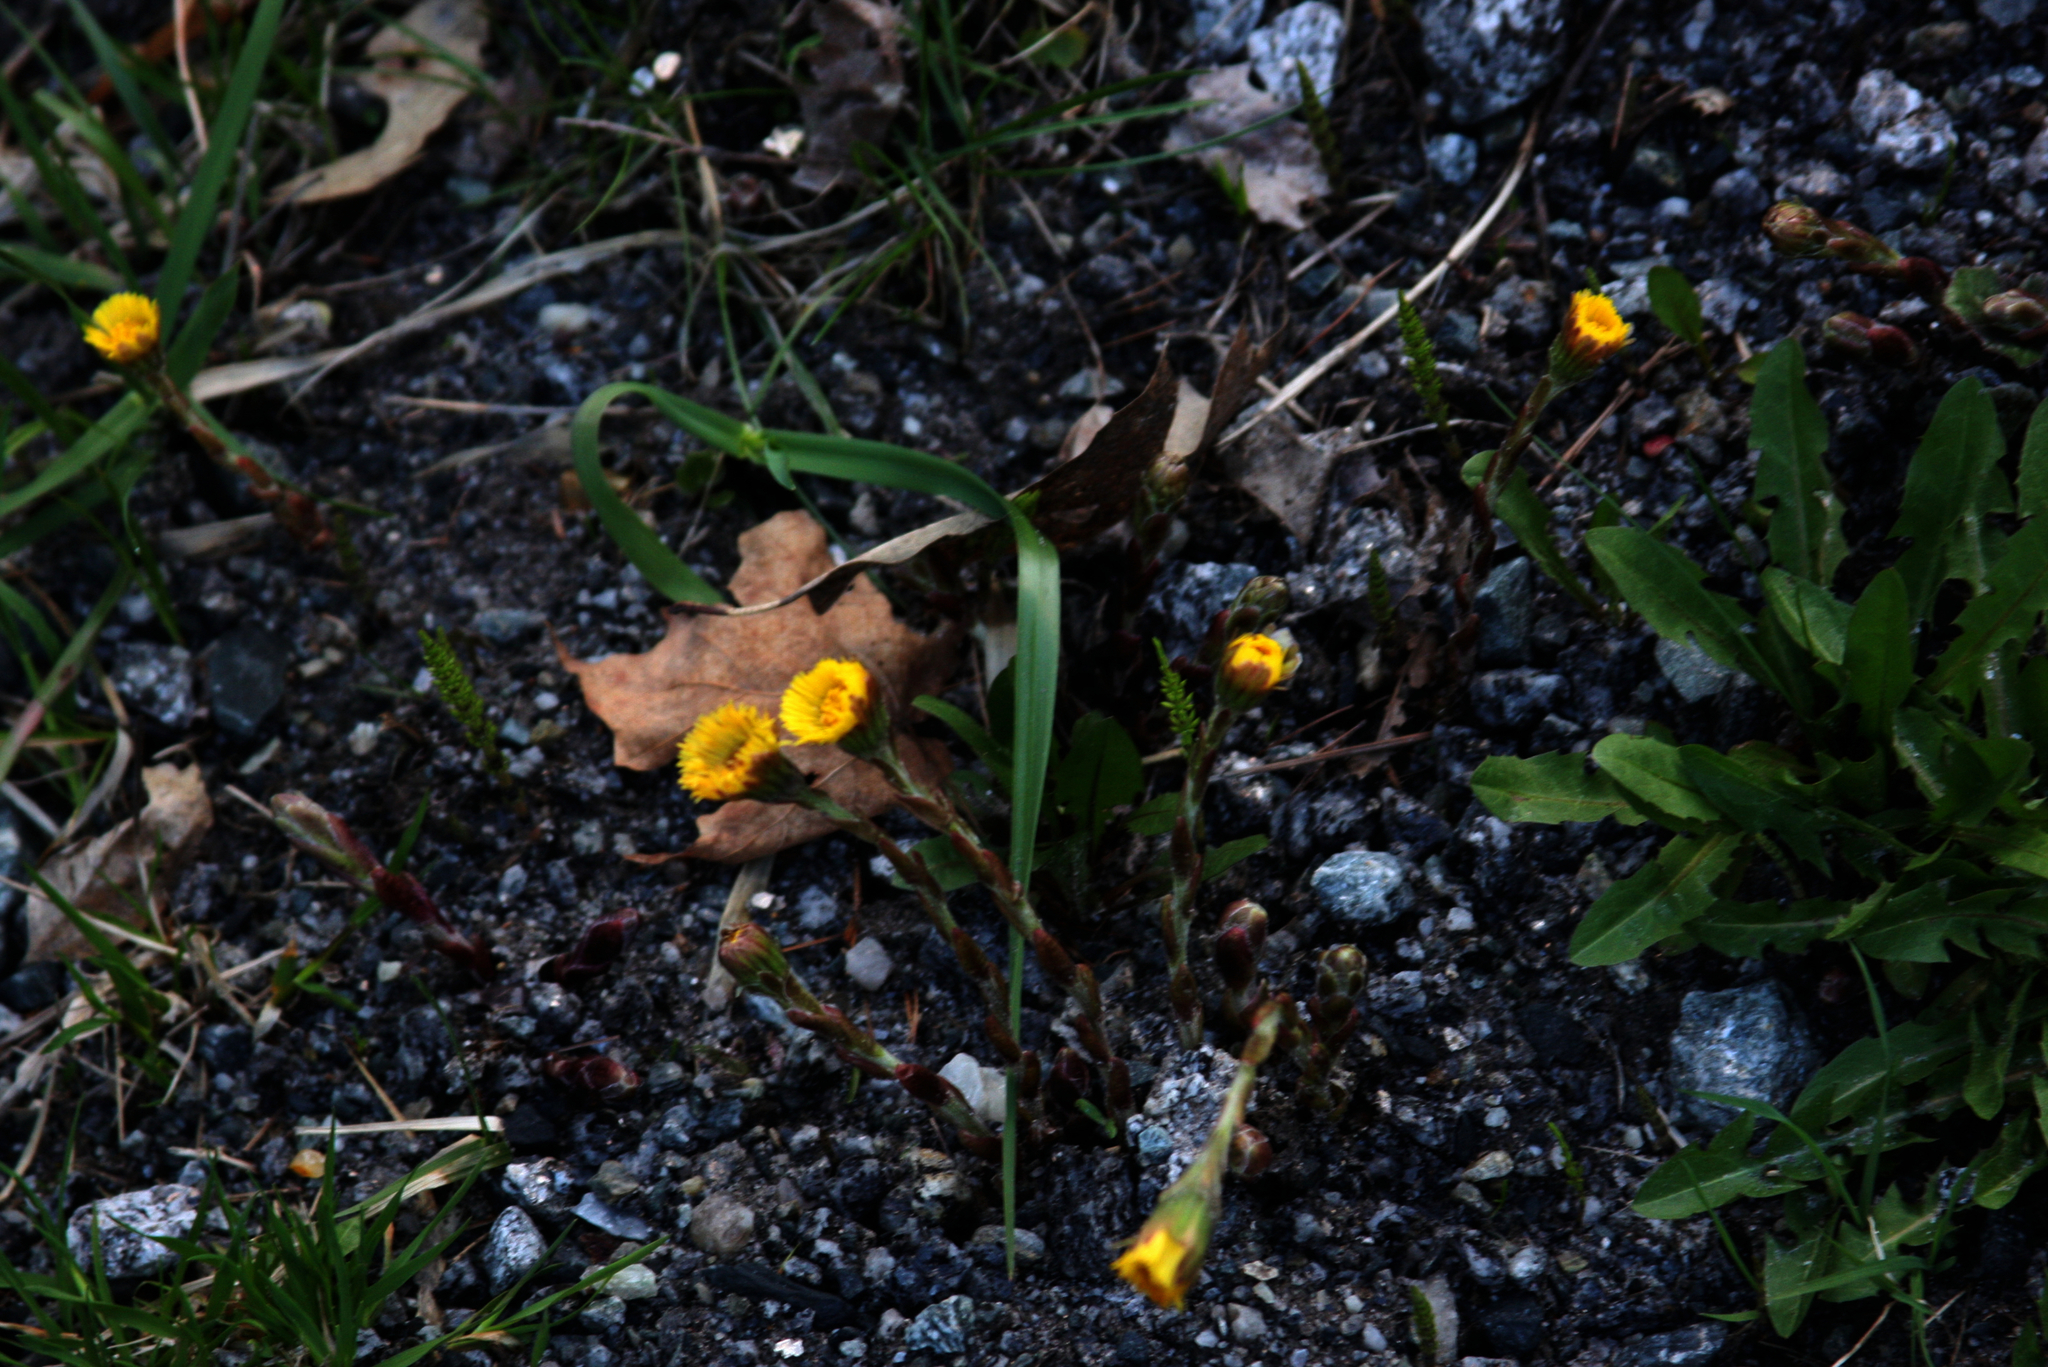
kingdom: Plantae
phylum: Tracheophyta
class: Magnoliopsida
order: Asterales
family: Asteraceae
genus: Tussilago
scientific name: Tussilago farfara
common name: Coltsfoot
